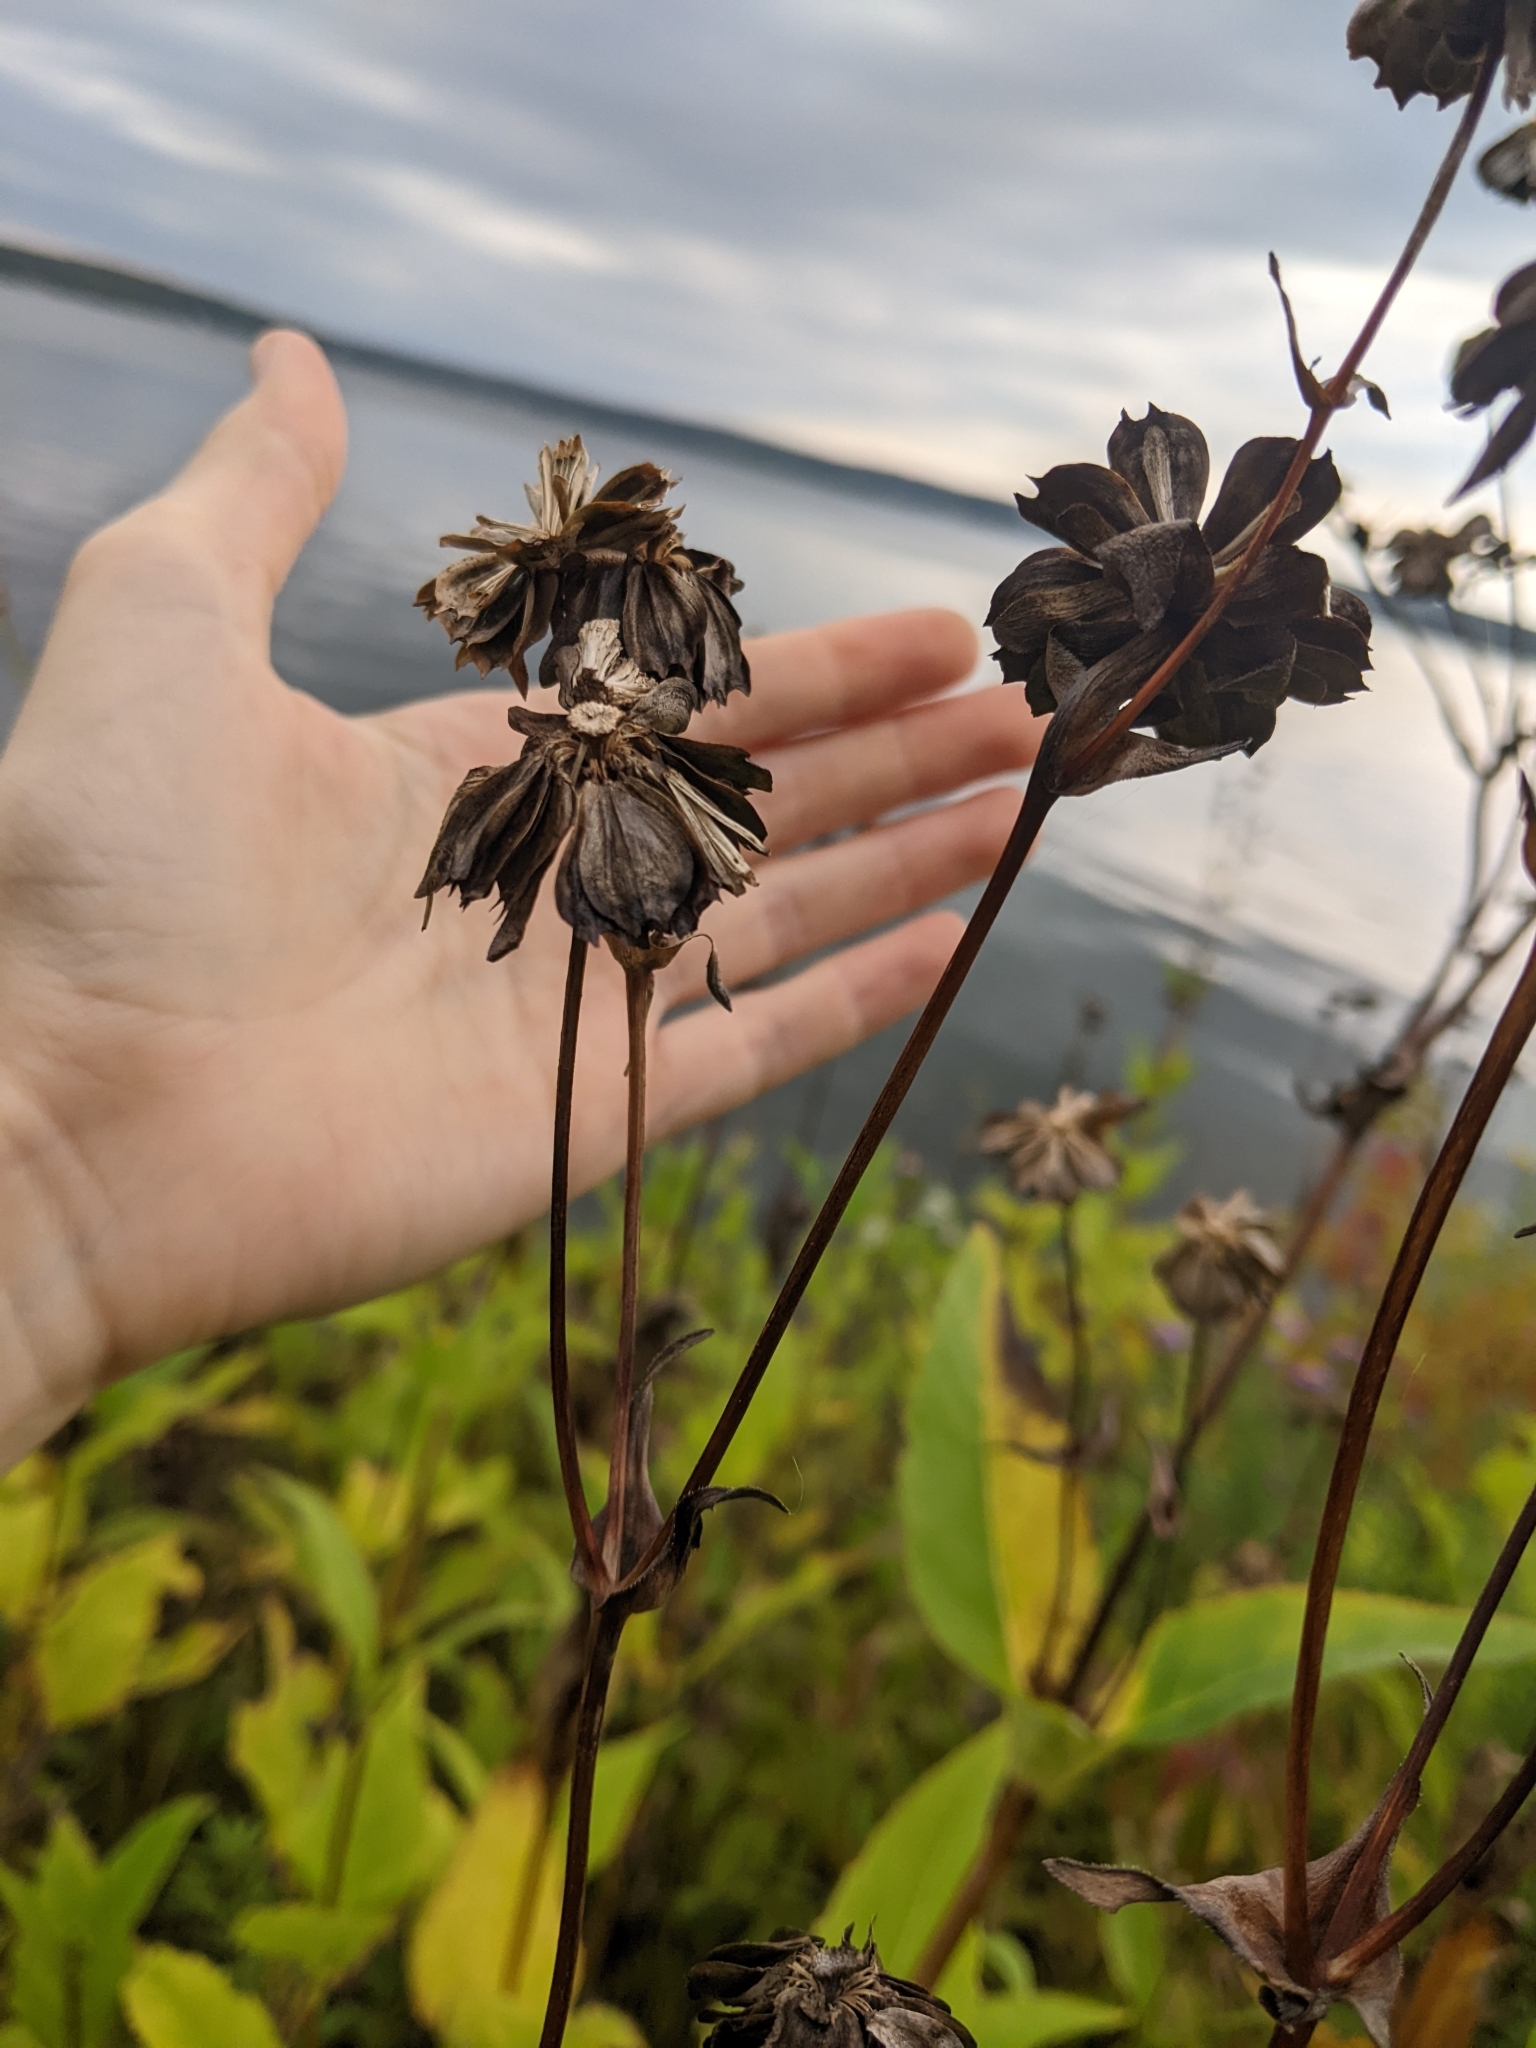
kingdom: Plantae
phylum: Tracheophyta
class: Magnoliopsida
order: Asterales
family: Asteraceae
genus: Silphium
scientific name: Silphium perfoliatum
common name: Cup-plant
